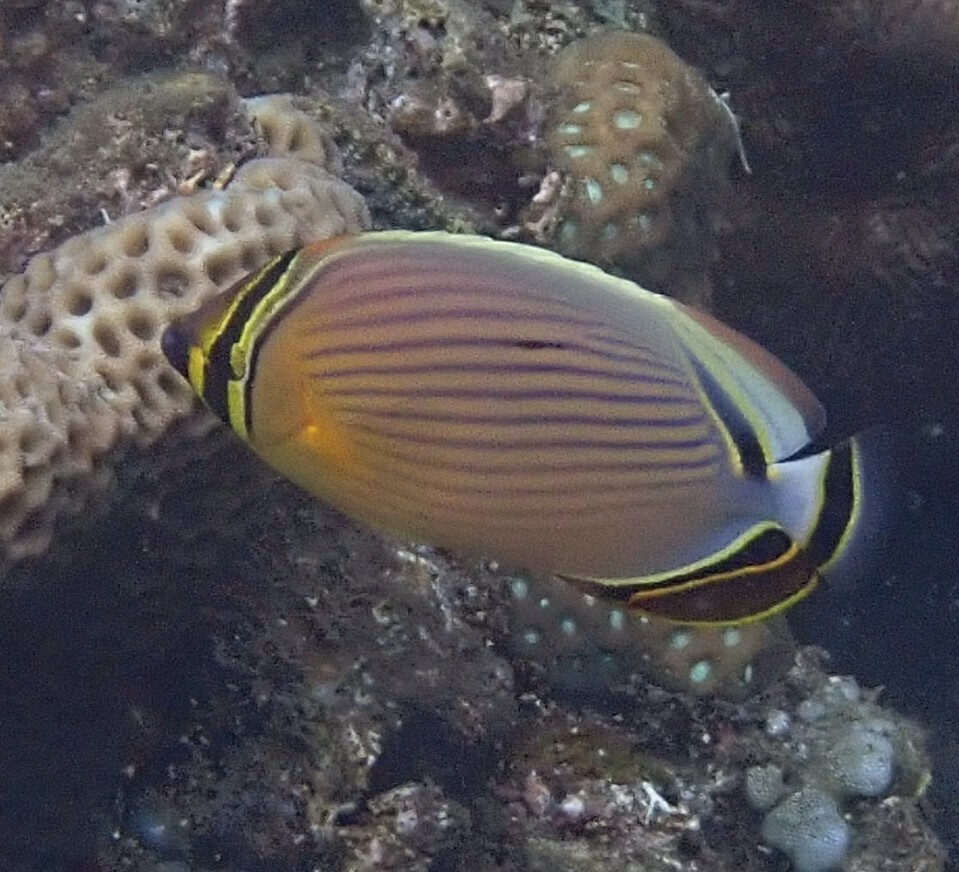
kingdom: Animalia
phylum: Chordata
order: Perciformes
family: Chaetodontidae
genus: Chaetodon
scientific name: Chaetodon lunulatus
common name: Redfin butterflyfish
